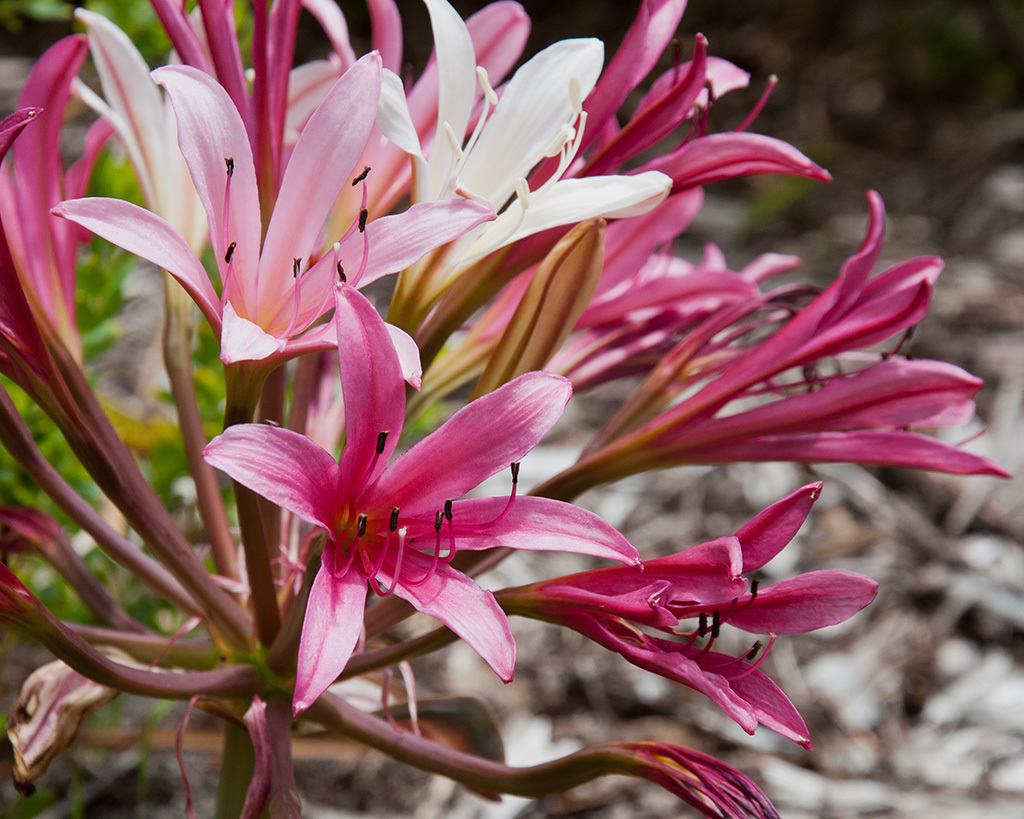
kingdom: Plantae
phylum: Tracheophyta
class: Liliopsida
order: Asparagales
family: Amaryllidaceae
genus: Ammocharis
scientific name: Ammocharis longifolia
